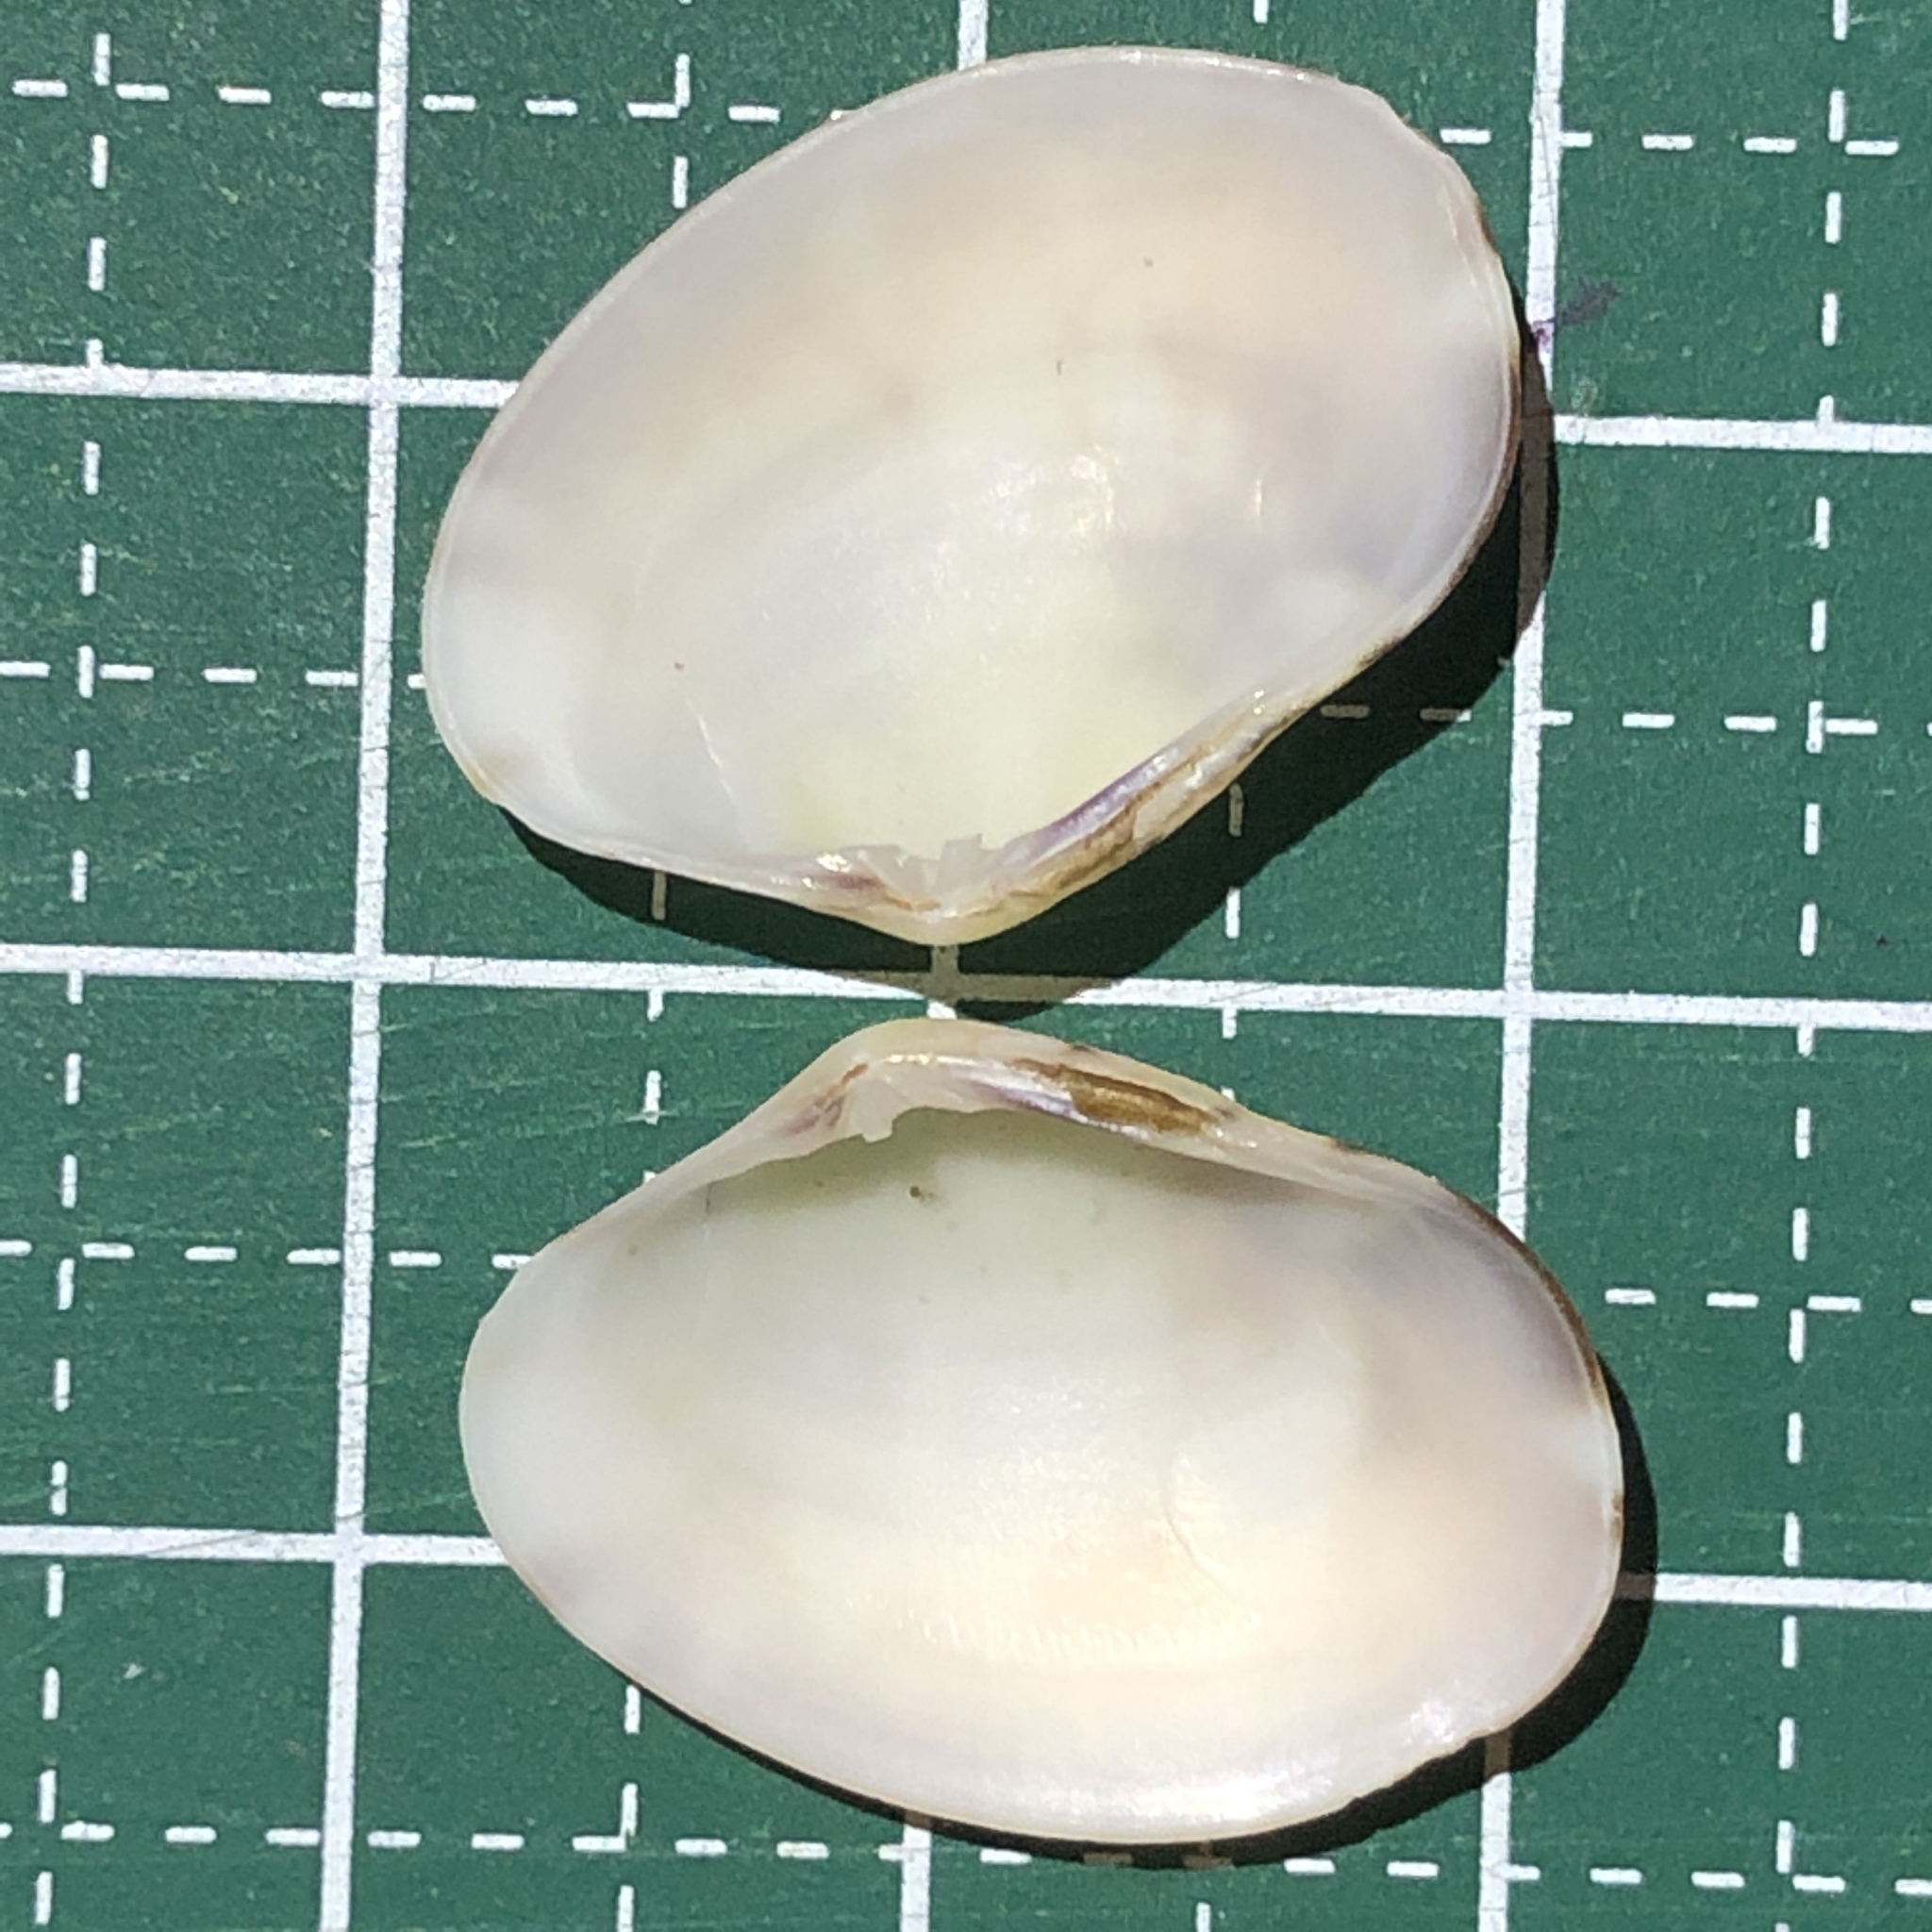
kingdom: Animalia
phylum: Mollusca
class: Bivalvia
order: Venerida
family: Veneridae
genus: Ruditapes
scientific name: Ruditapes philippinarum
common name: Manila clam
